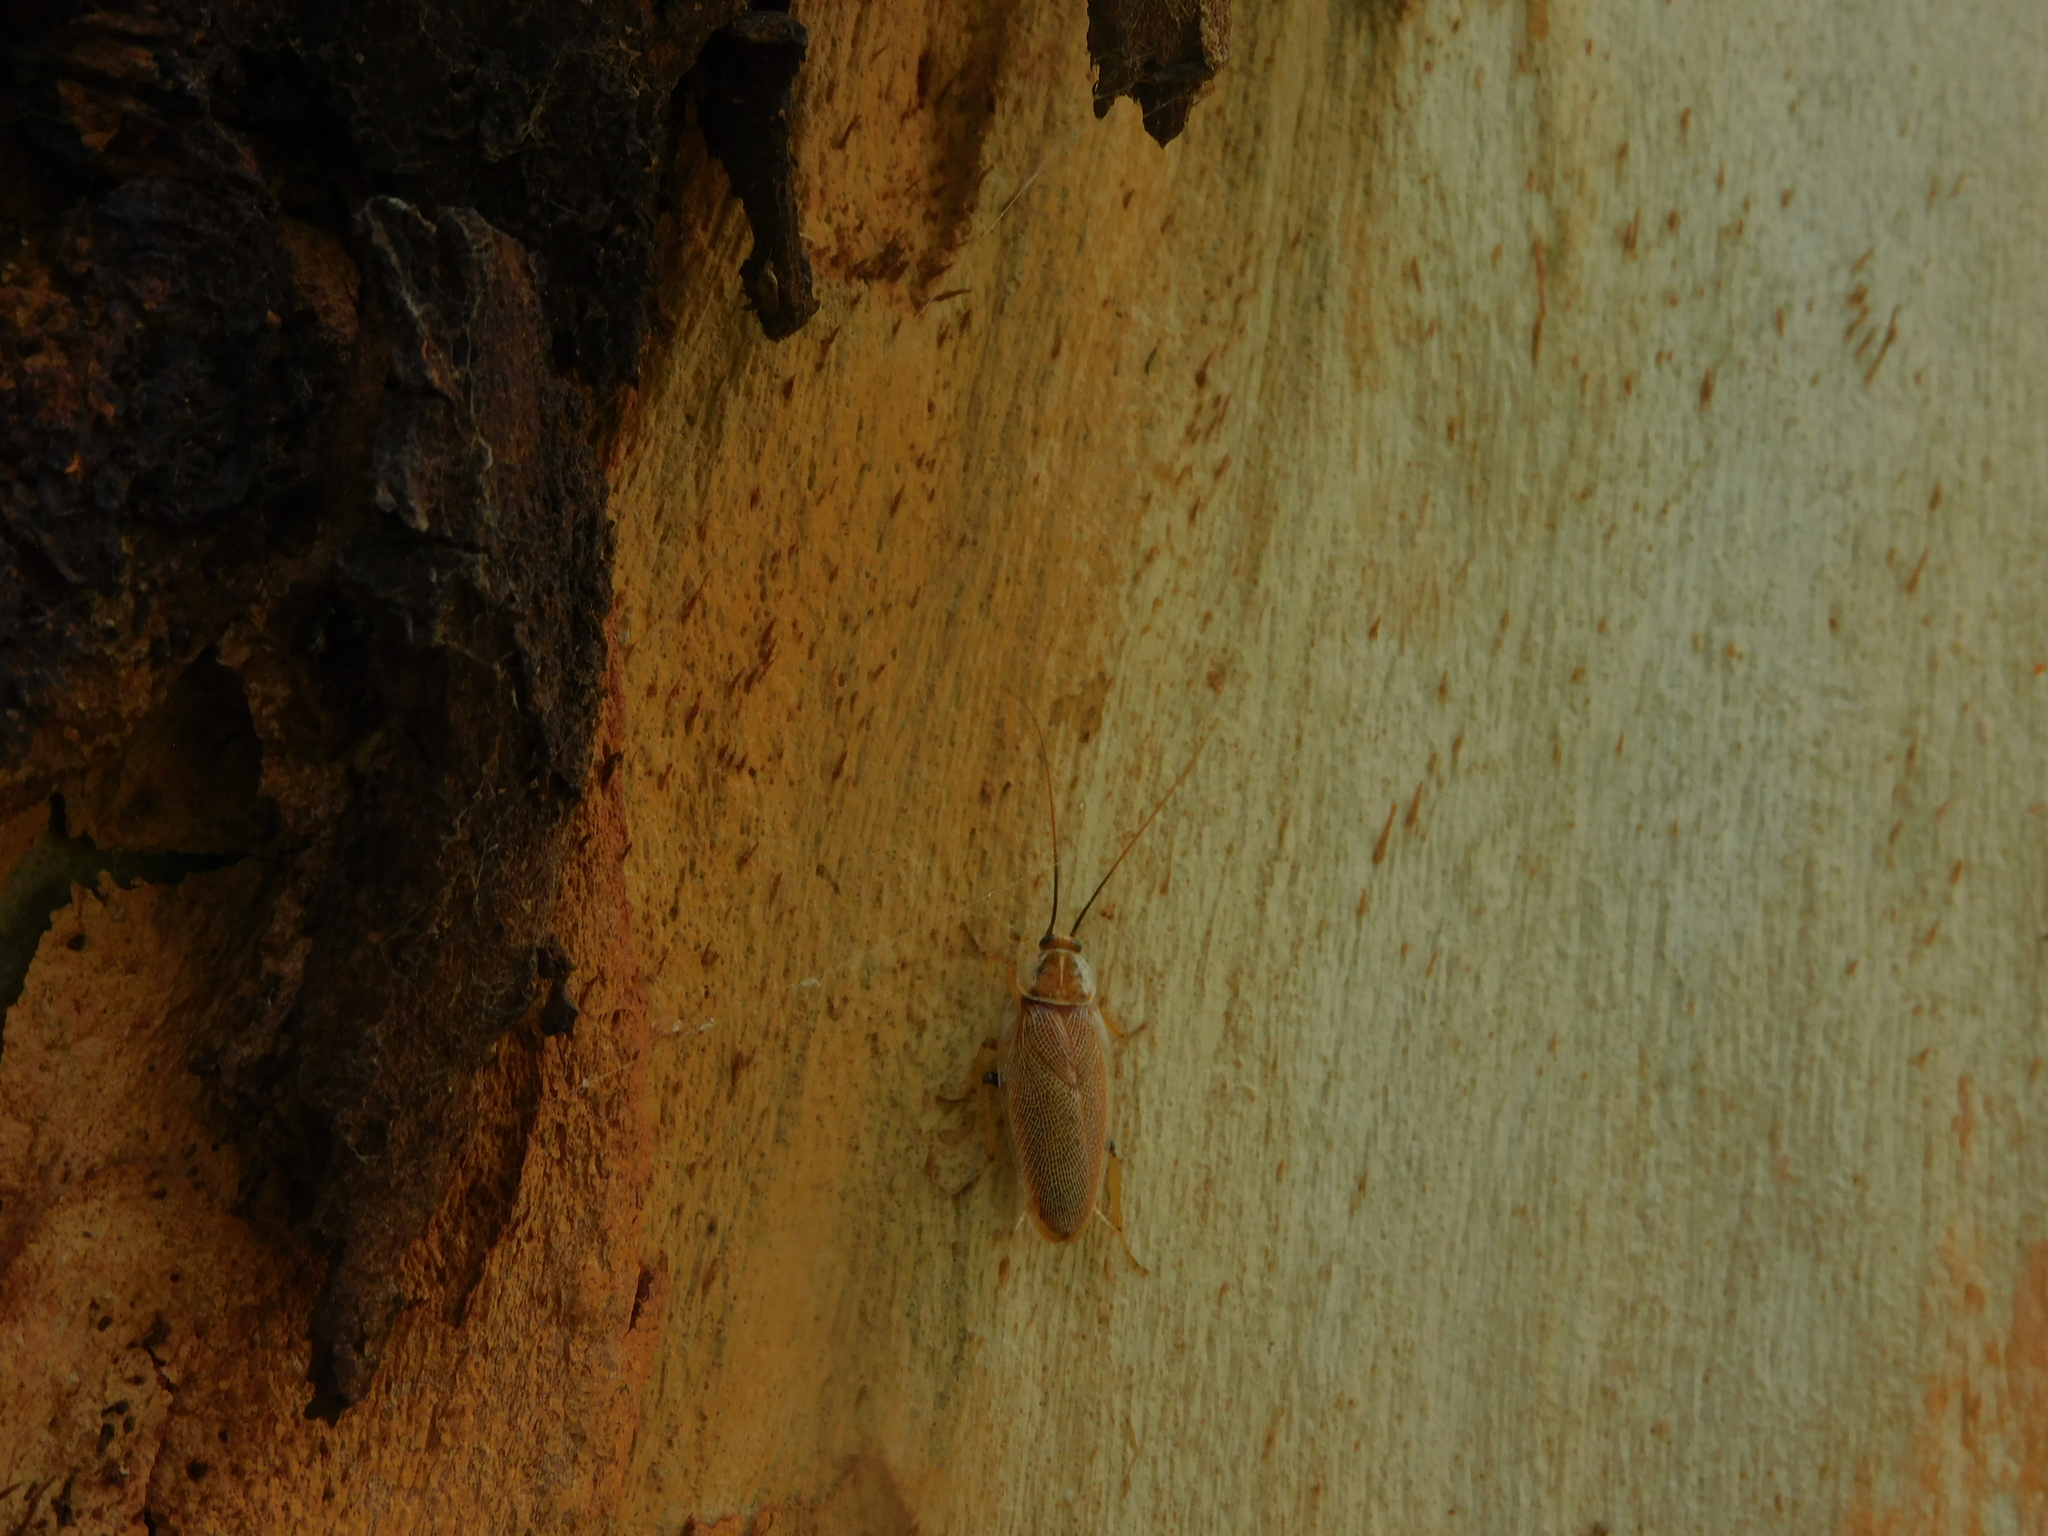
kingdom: Animalia
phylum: Arthropoda
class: Insecta
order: Blattodea
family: Ectobiidae
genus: Ellipsidion
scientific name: Ellipsidion humerale
